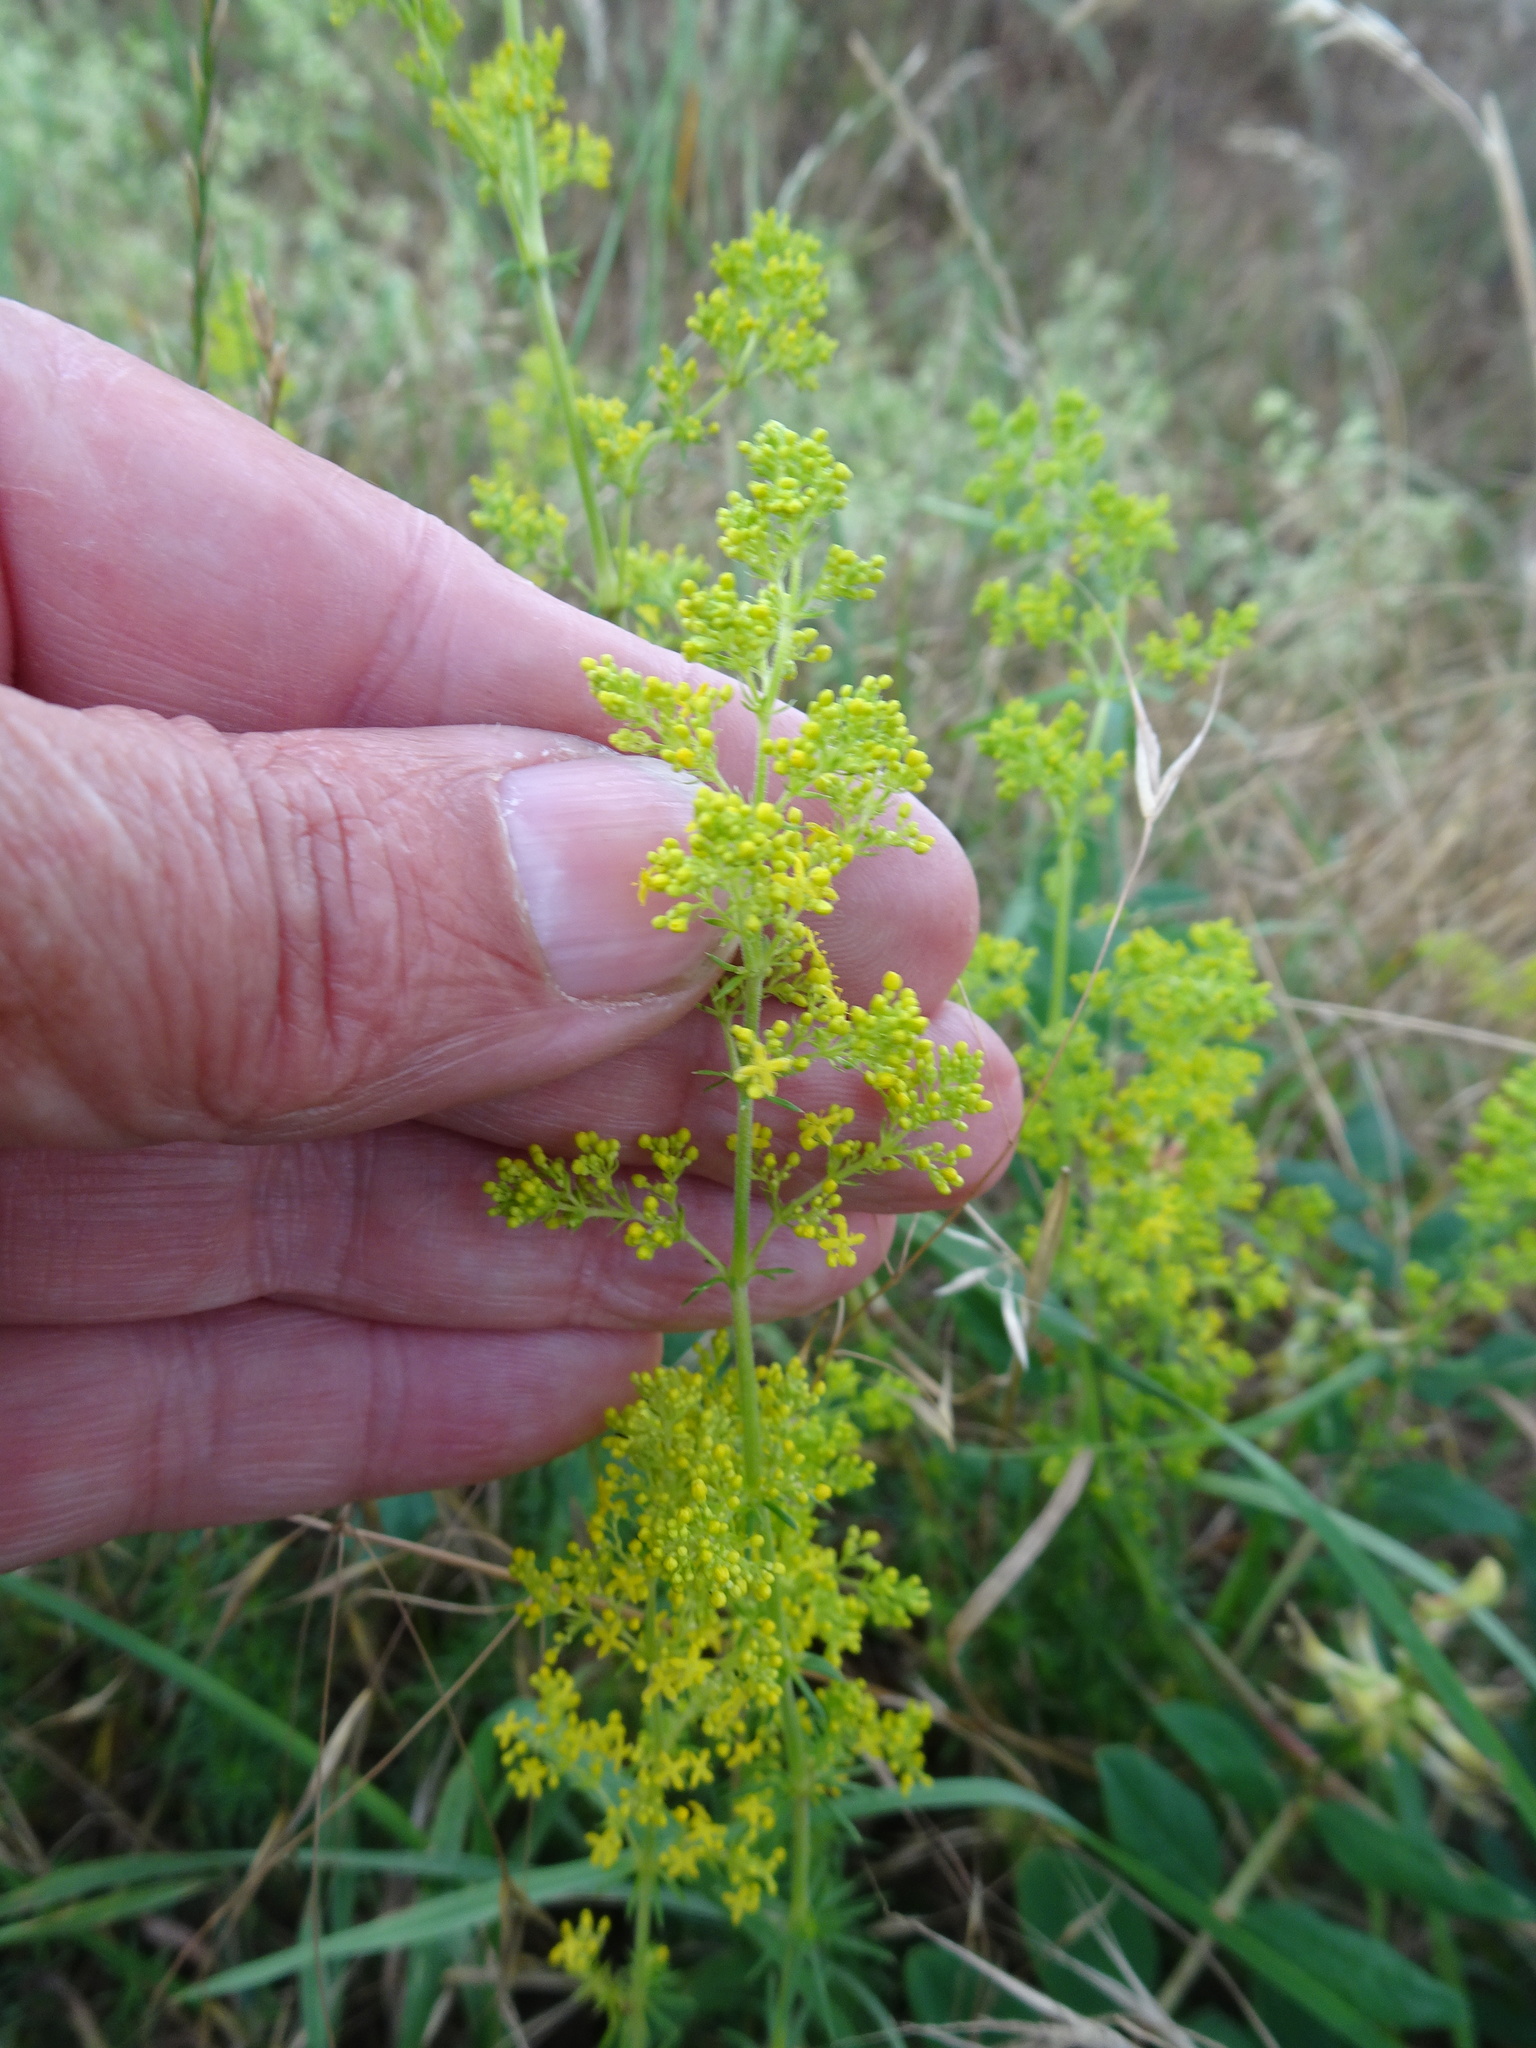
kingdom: Plantae
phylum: Tracheophyta
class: Magnoliopsida
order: Gentianales
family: Rubiaceae
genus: Galium
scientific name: Galium verum
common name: Lady's bedstraw
